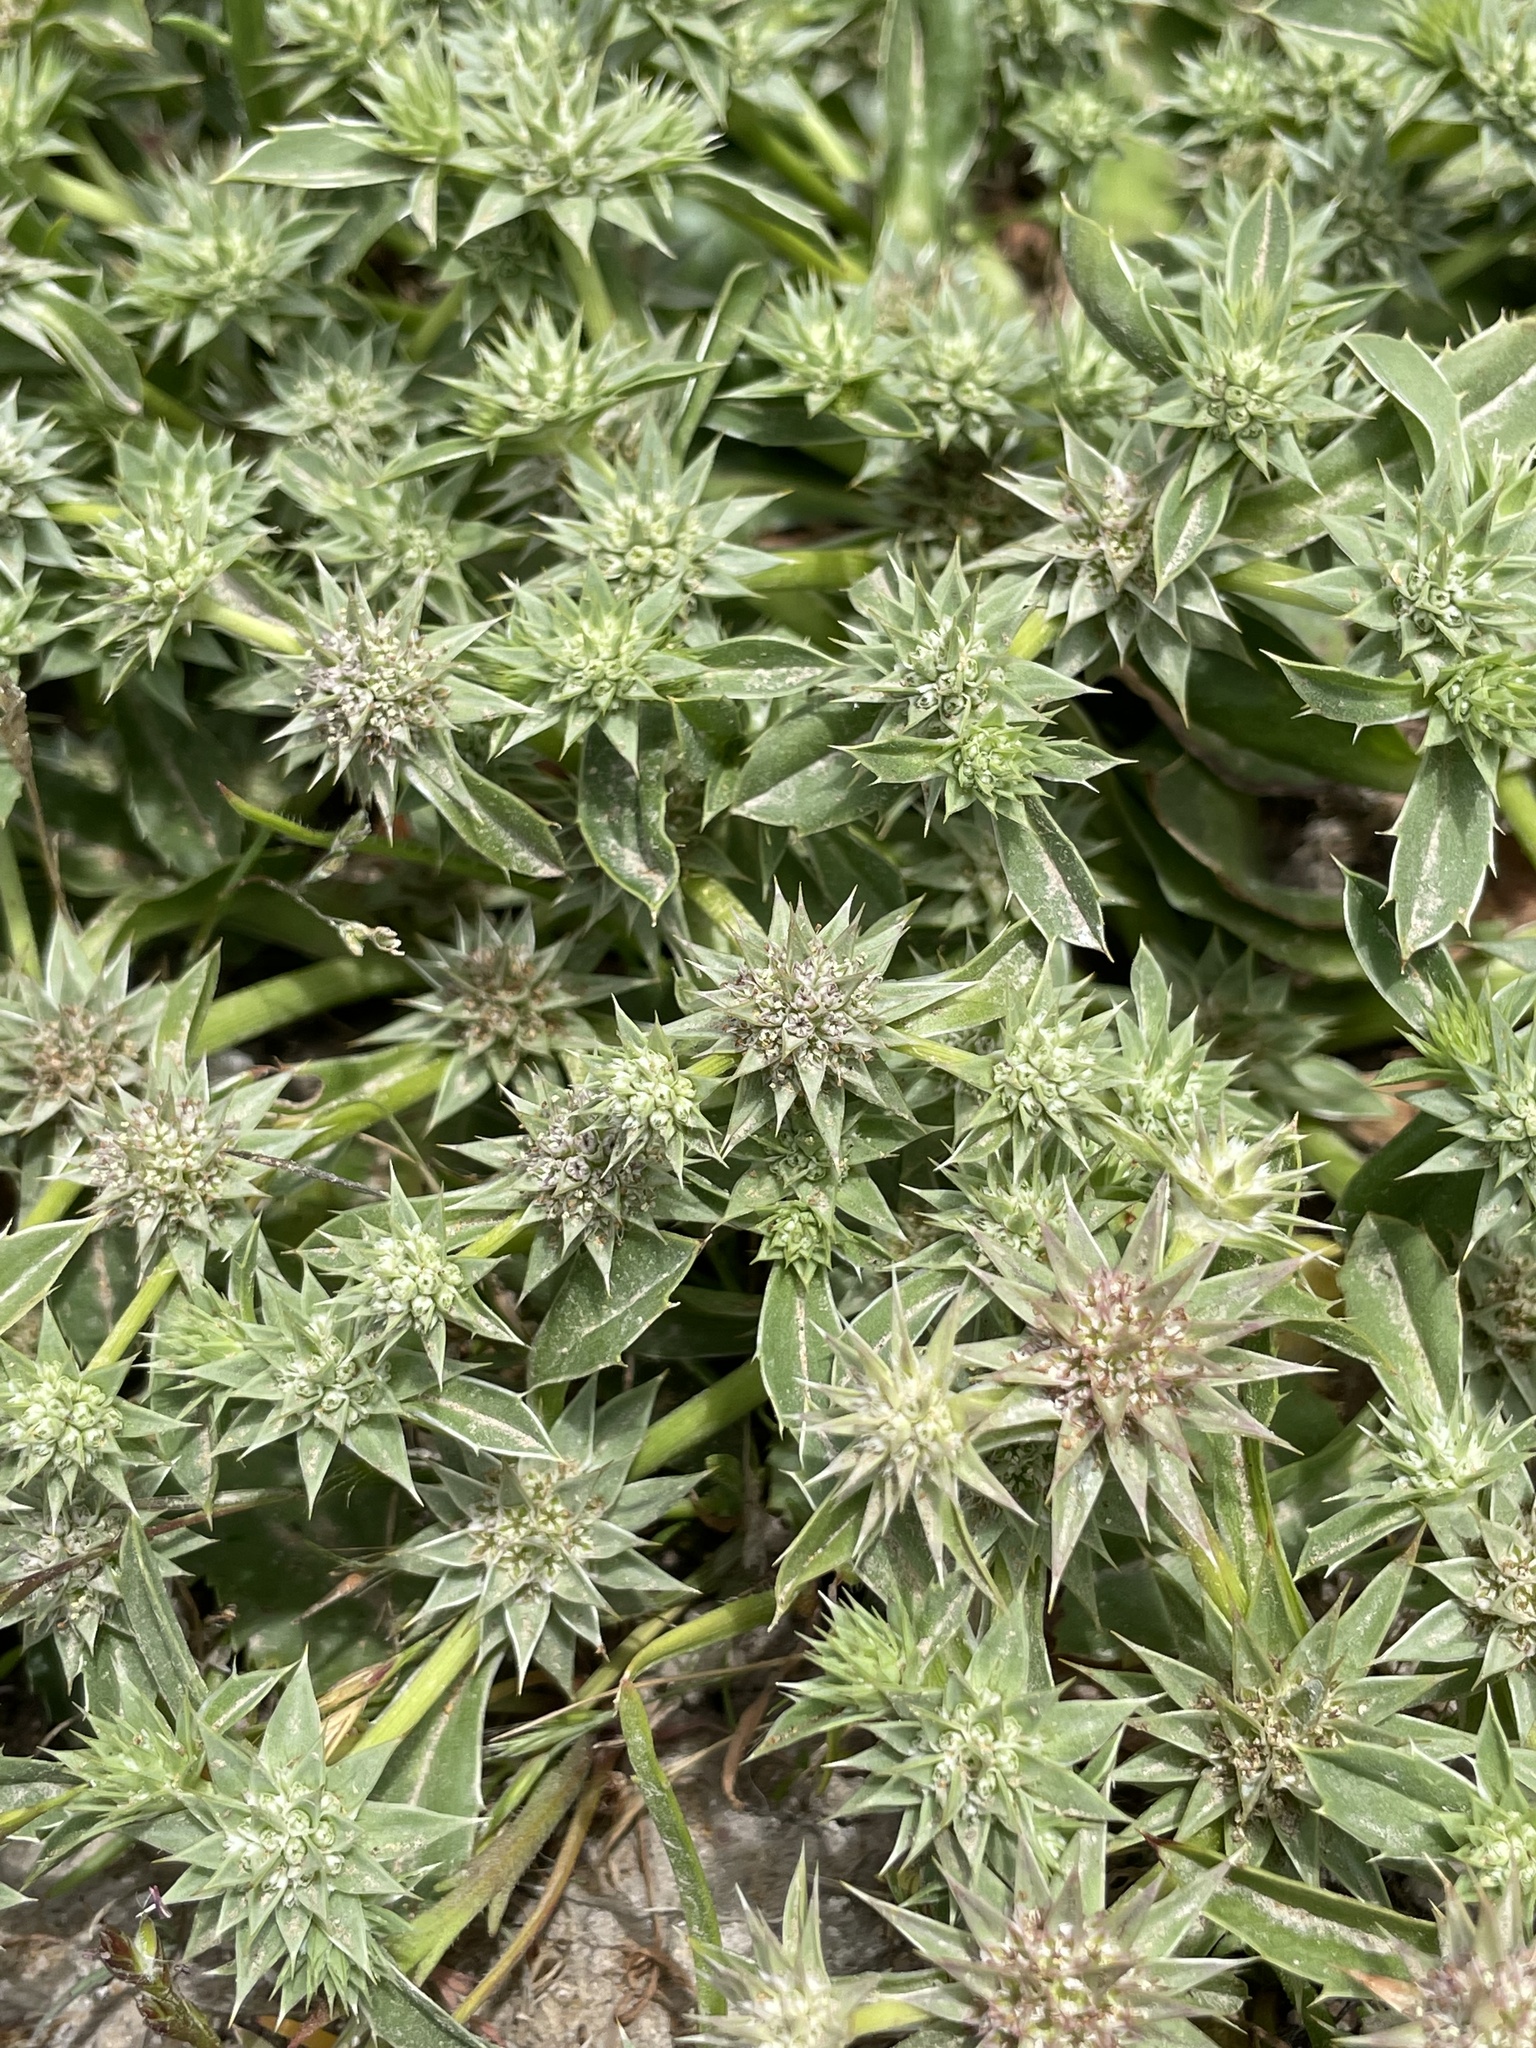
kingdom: Plantae
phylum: Tracheophyta
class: Magnoliopsida
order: Apiales
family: Apiaceae
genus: Eryngium
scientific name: Eryngium armatum
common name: Coyote thistle
